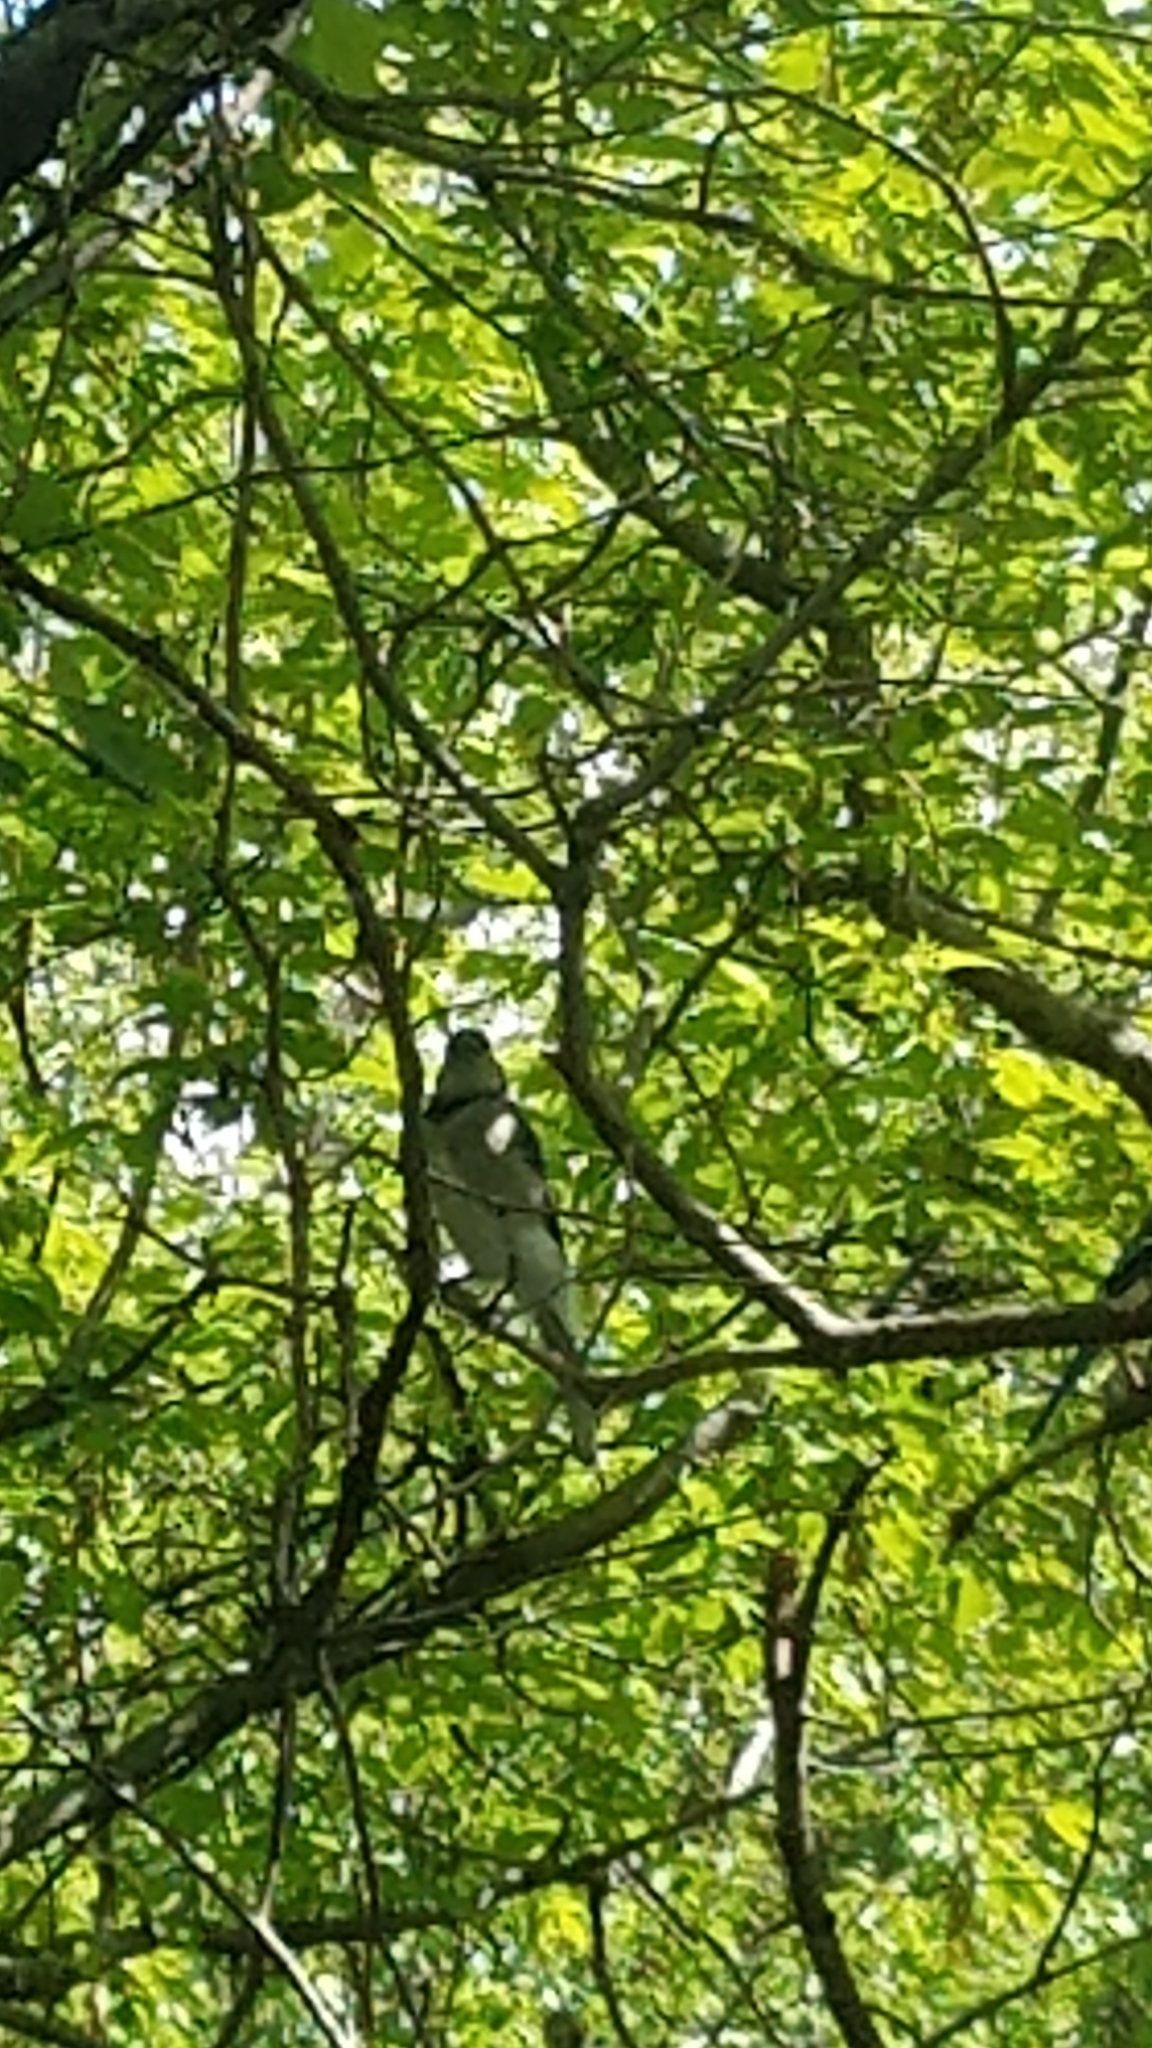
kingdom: Animalia
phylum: Chordata
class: Aves
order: Passeriformes
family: Corvidae
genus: Cyanocitta
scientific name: Cyanocitta cristata
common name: Blue jay
